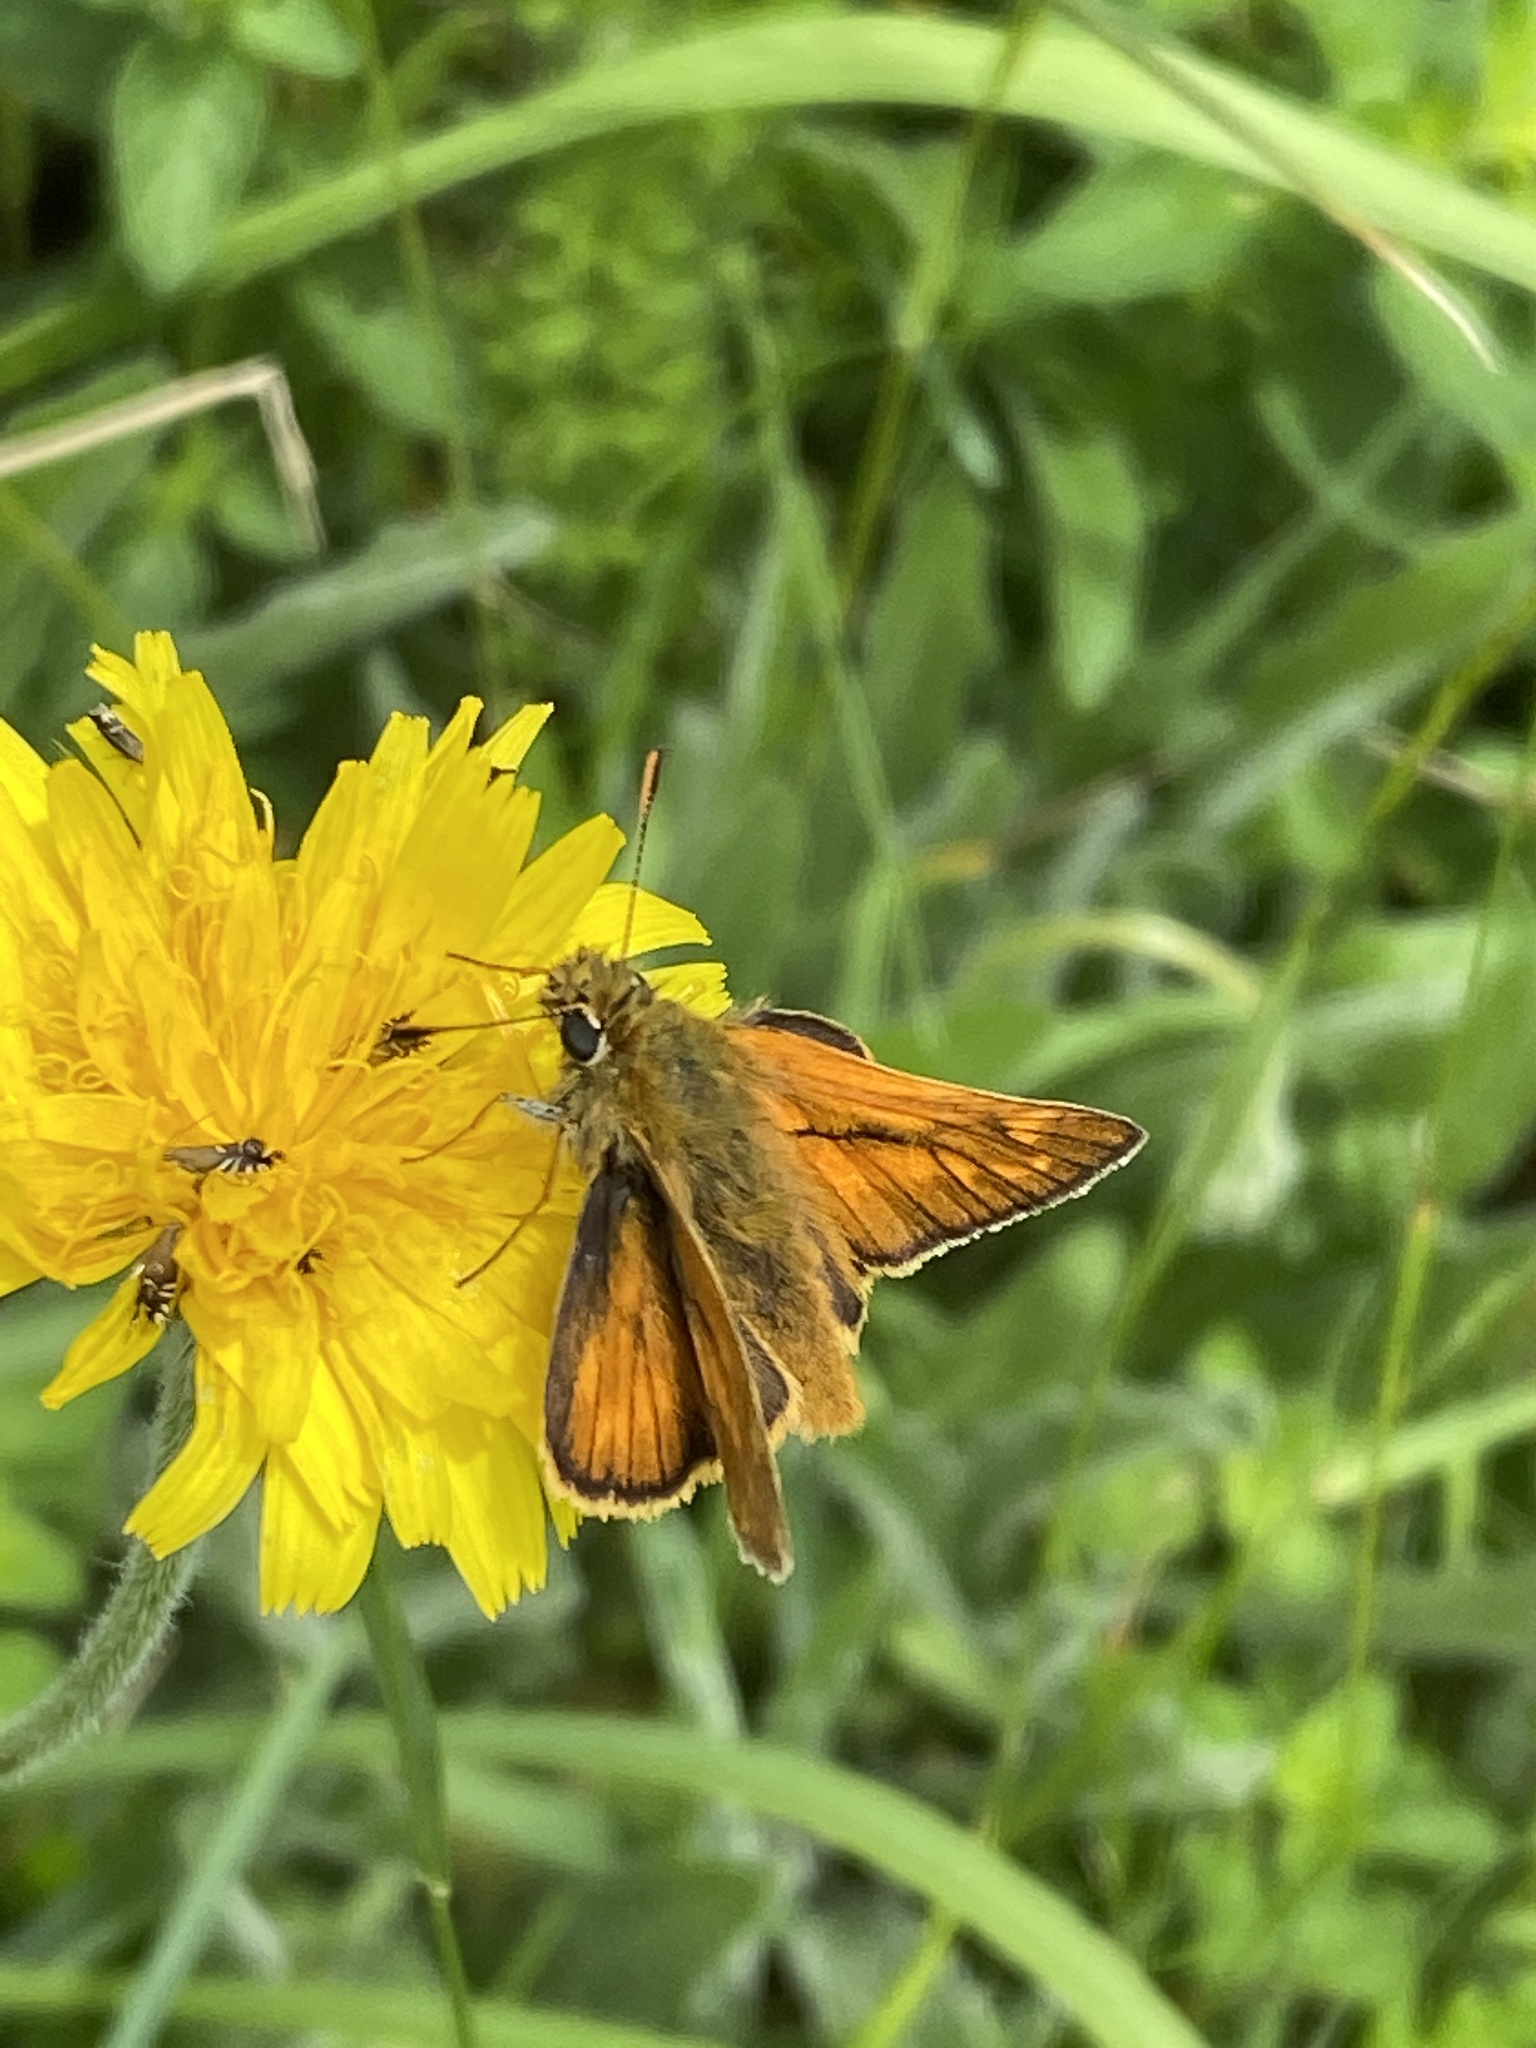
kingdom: Animalia
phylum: Arthropoda
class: Insecta
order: Lepidoptera
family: Hesperiidae
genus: Ochlodes
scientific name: Ochlodes venata
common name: Large skipper
